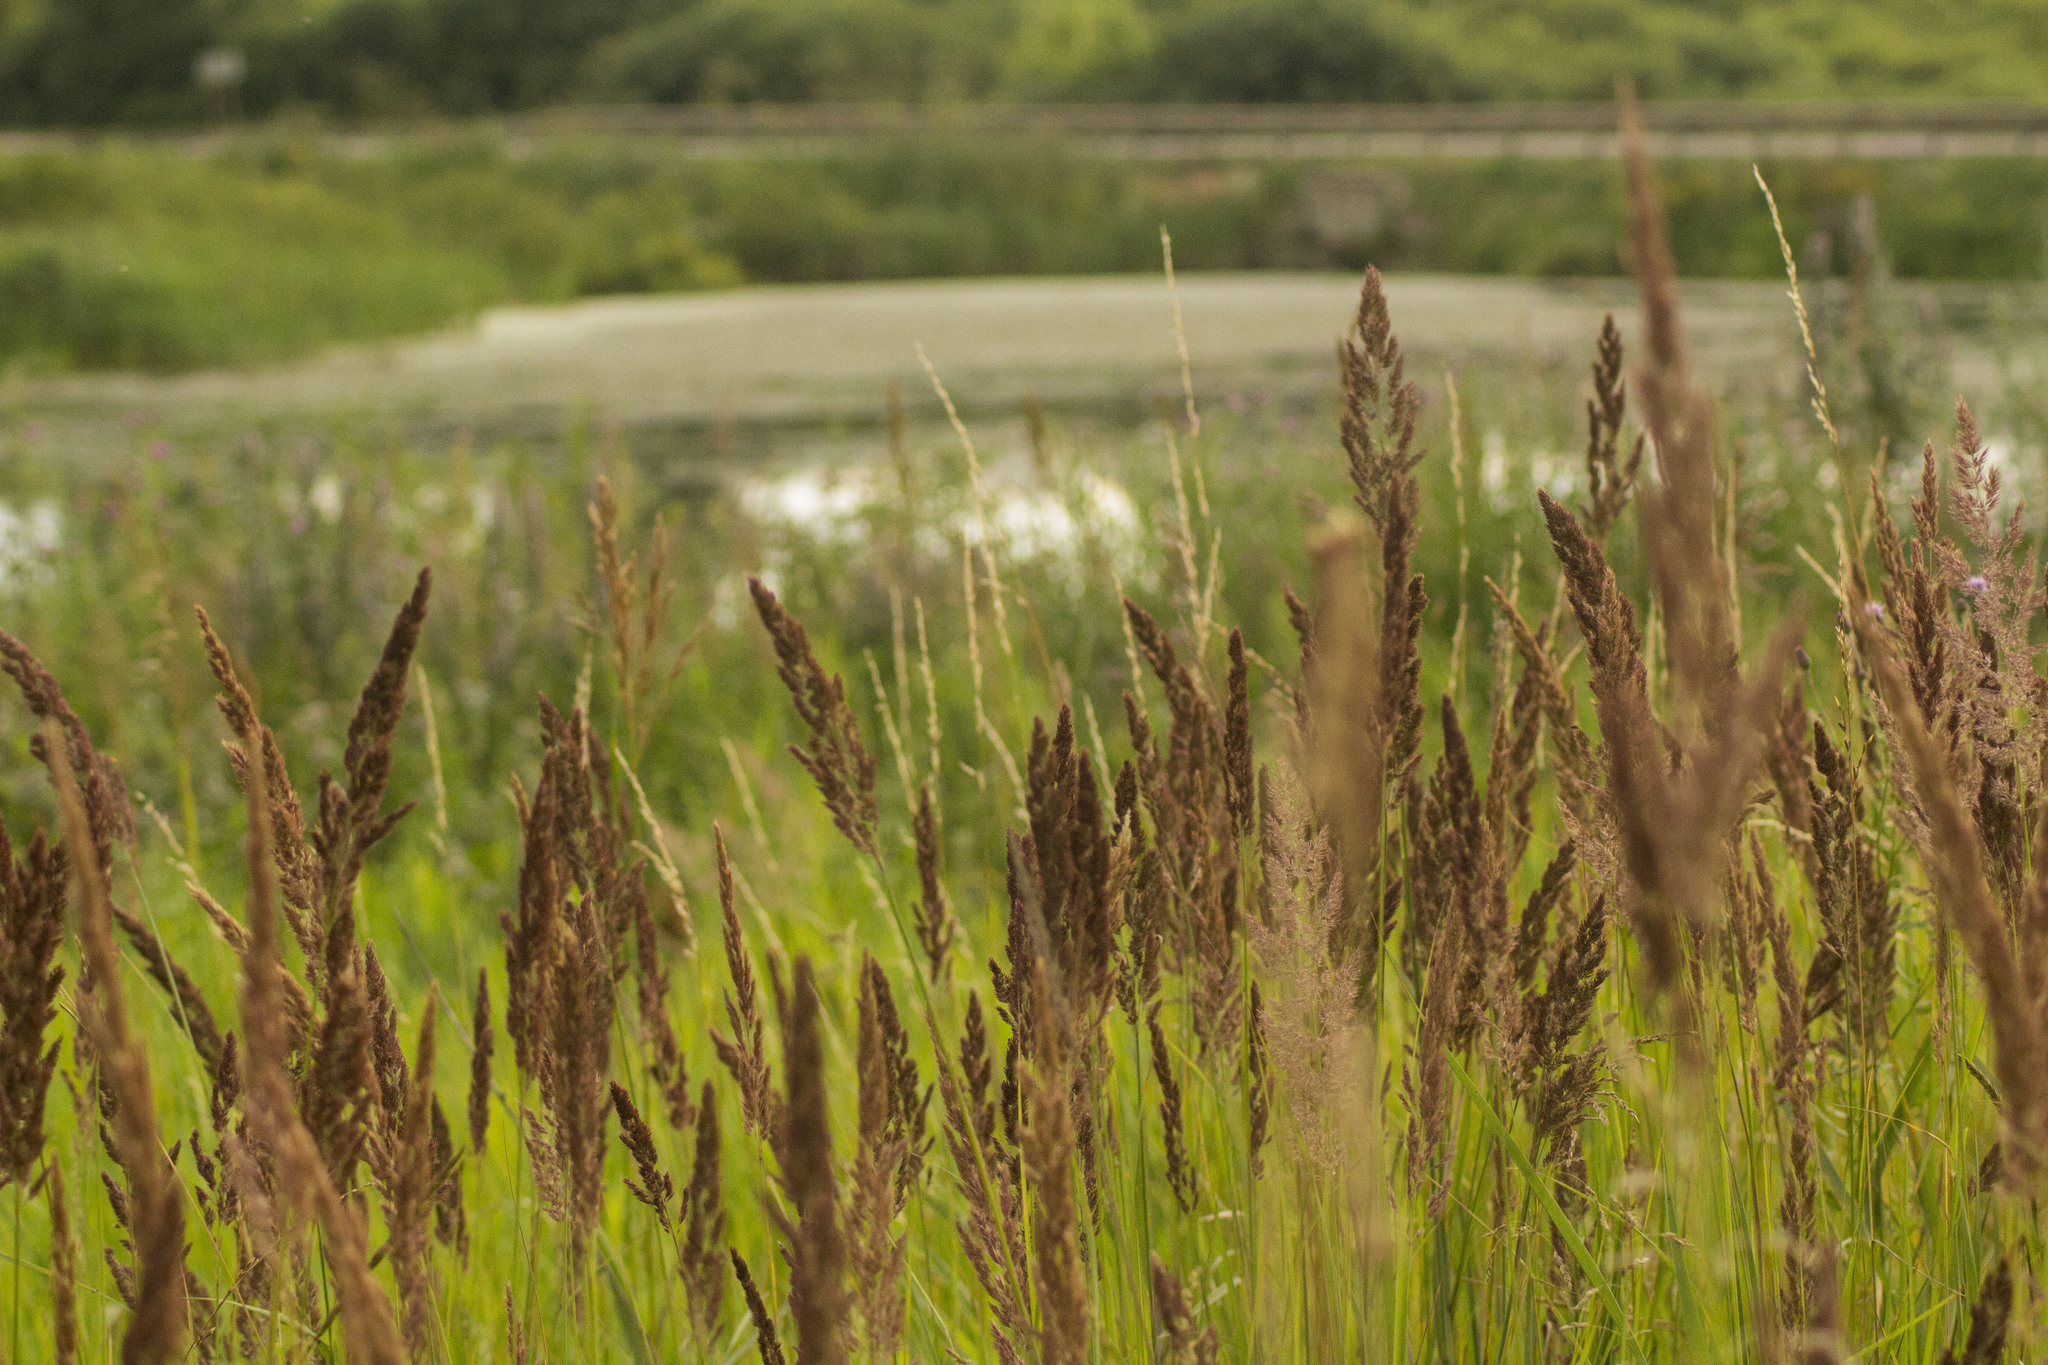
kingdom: Plantae
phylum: Tracheophyta
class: Liliopsida
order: Poales
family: Poaceae
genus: Calamagrostis
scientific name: Calamagrostis epigejos
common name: Wood small-reed
